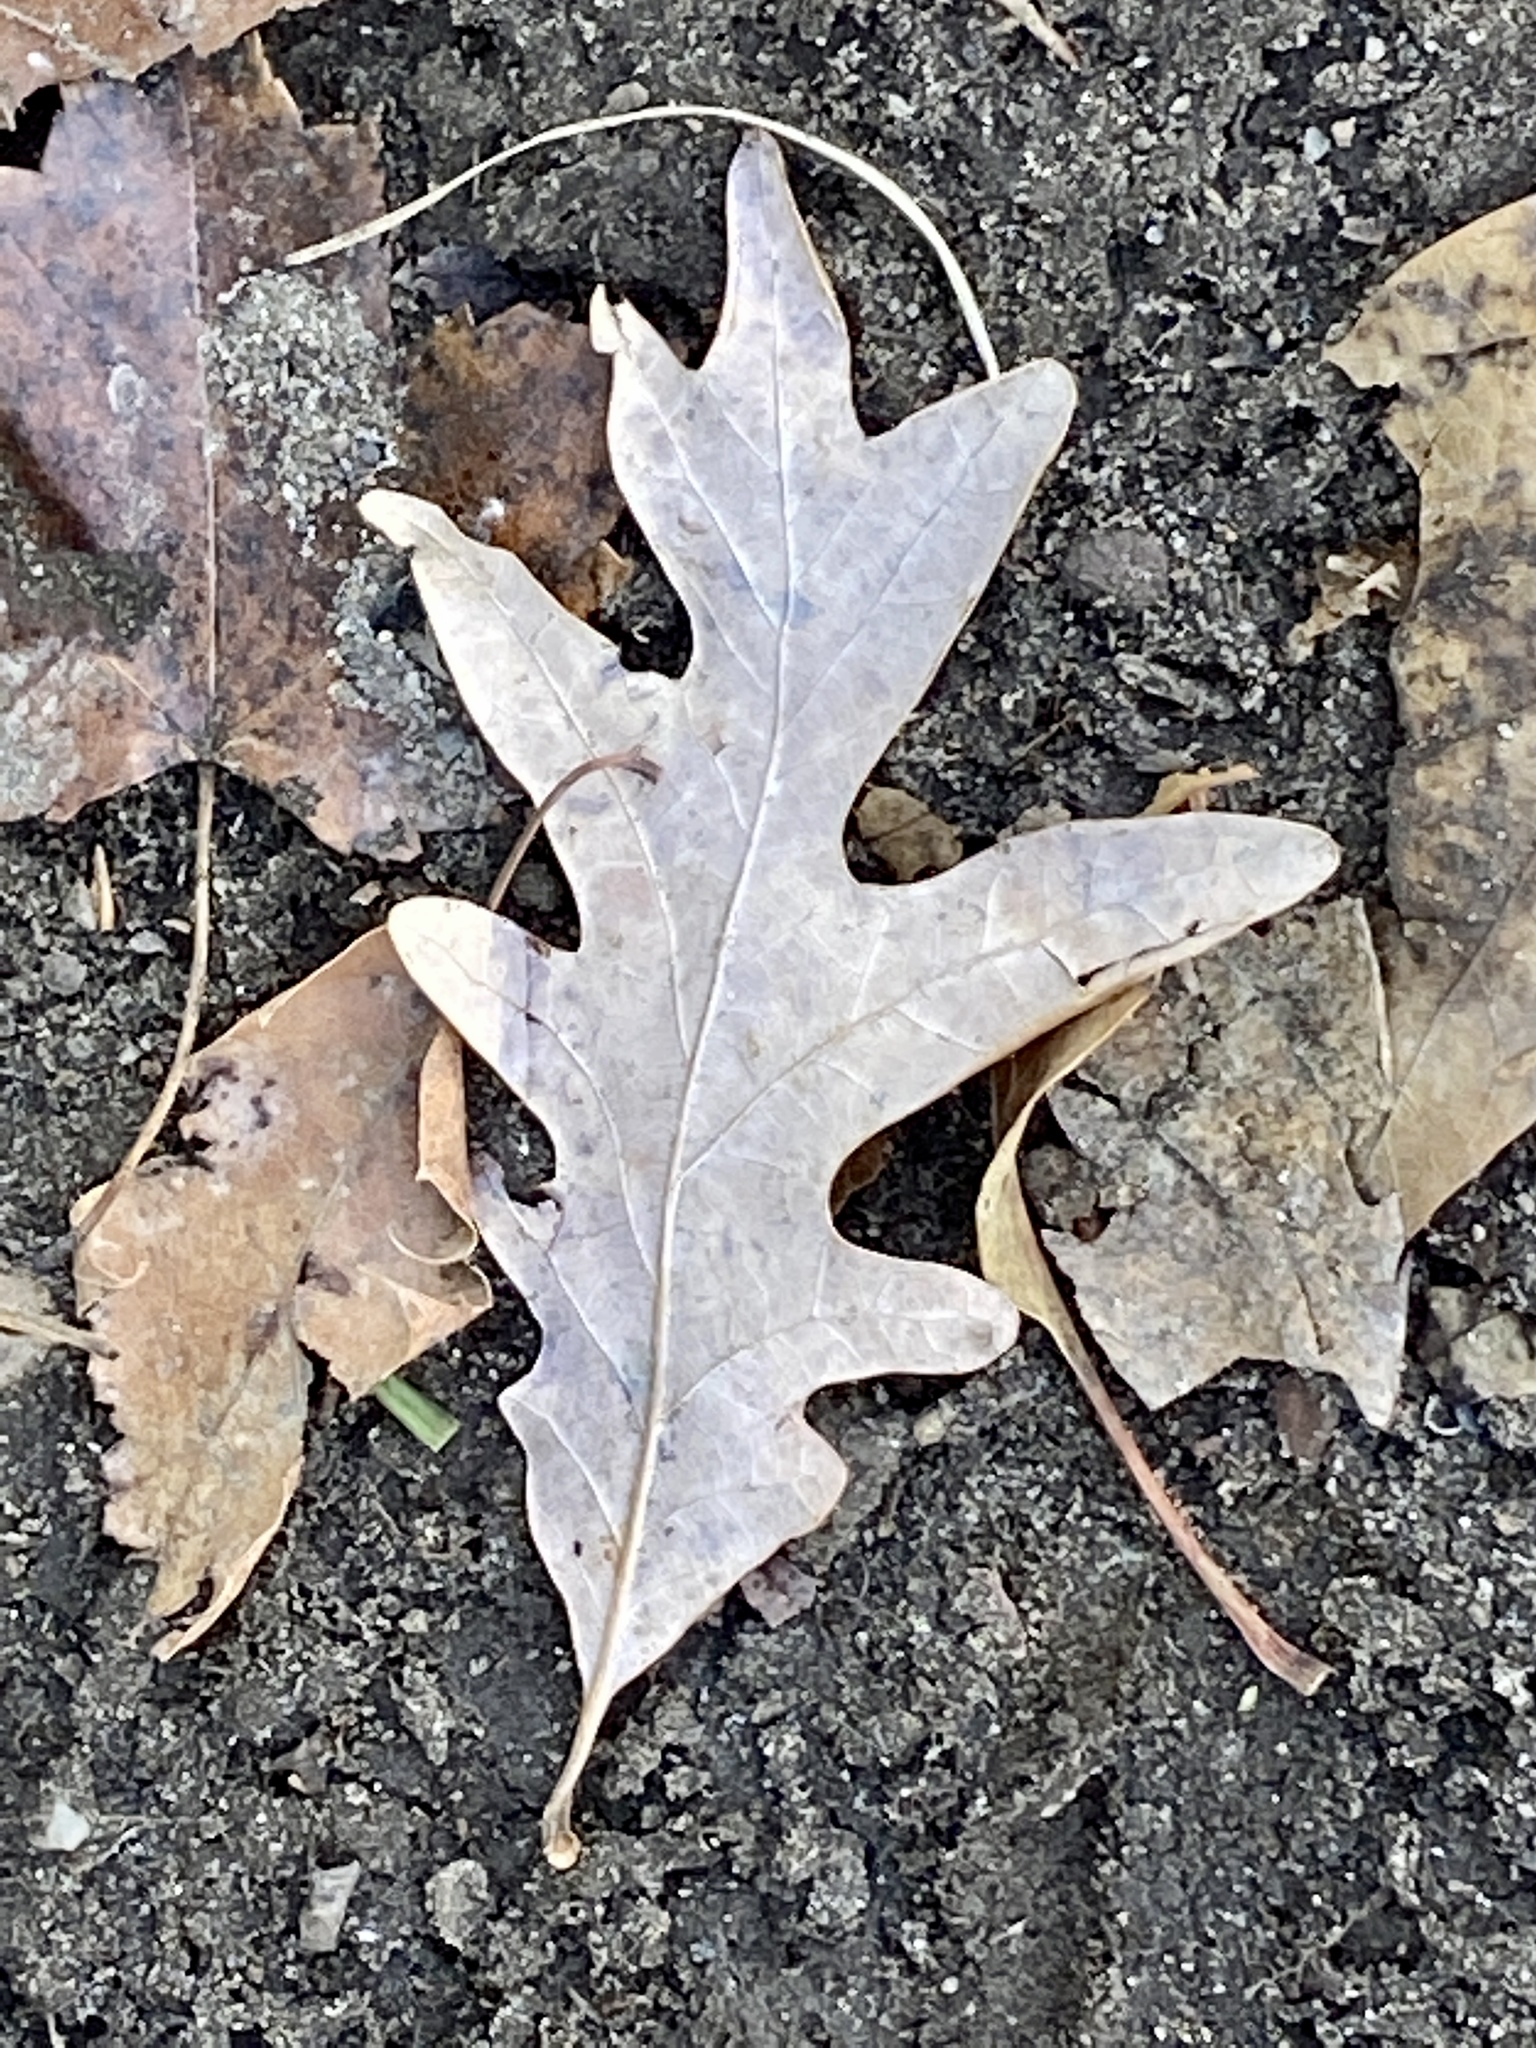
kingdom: Plantae
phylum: Tracheophyta
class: Magnoliopsida
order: Fagales
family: Fagaceae
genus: Quercus
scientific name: Quercus alba
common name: White oak
